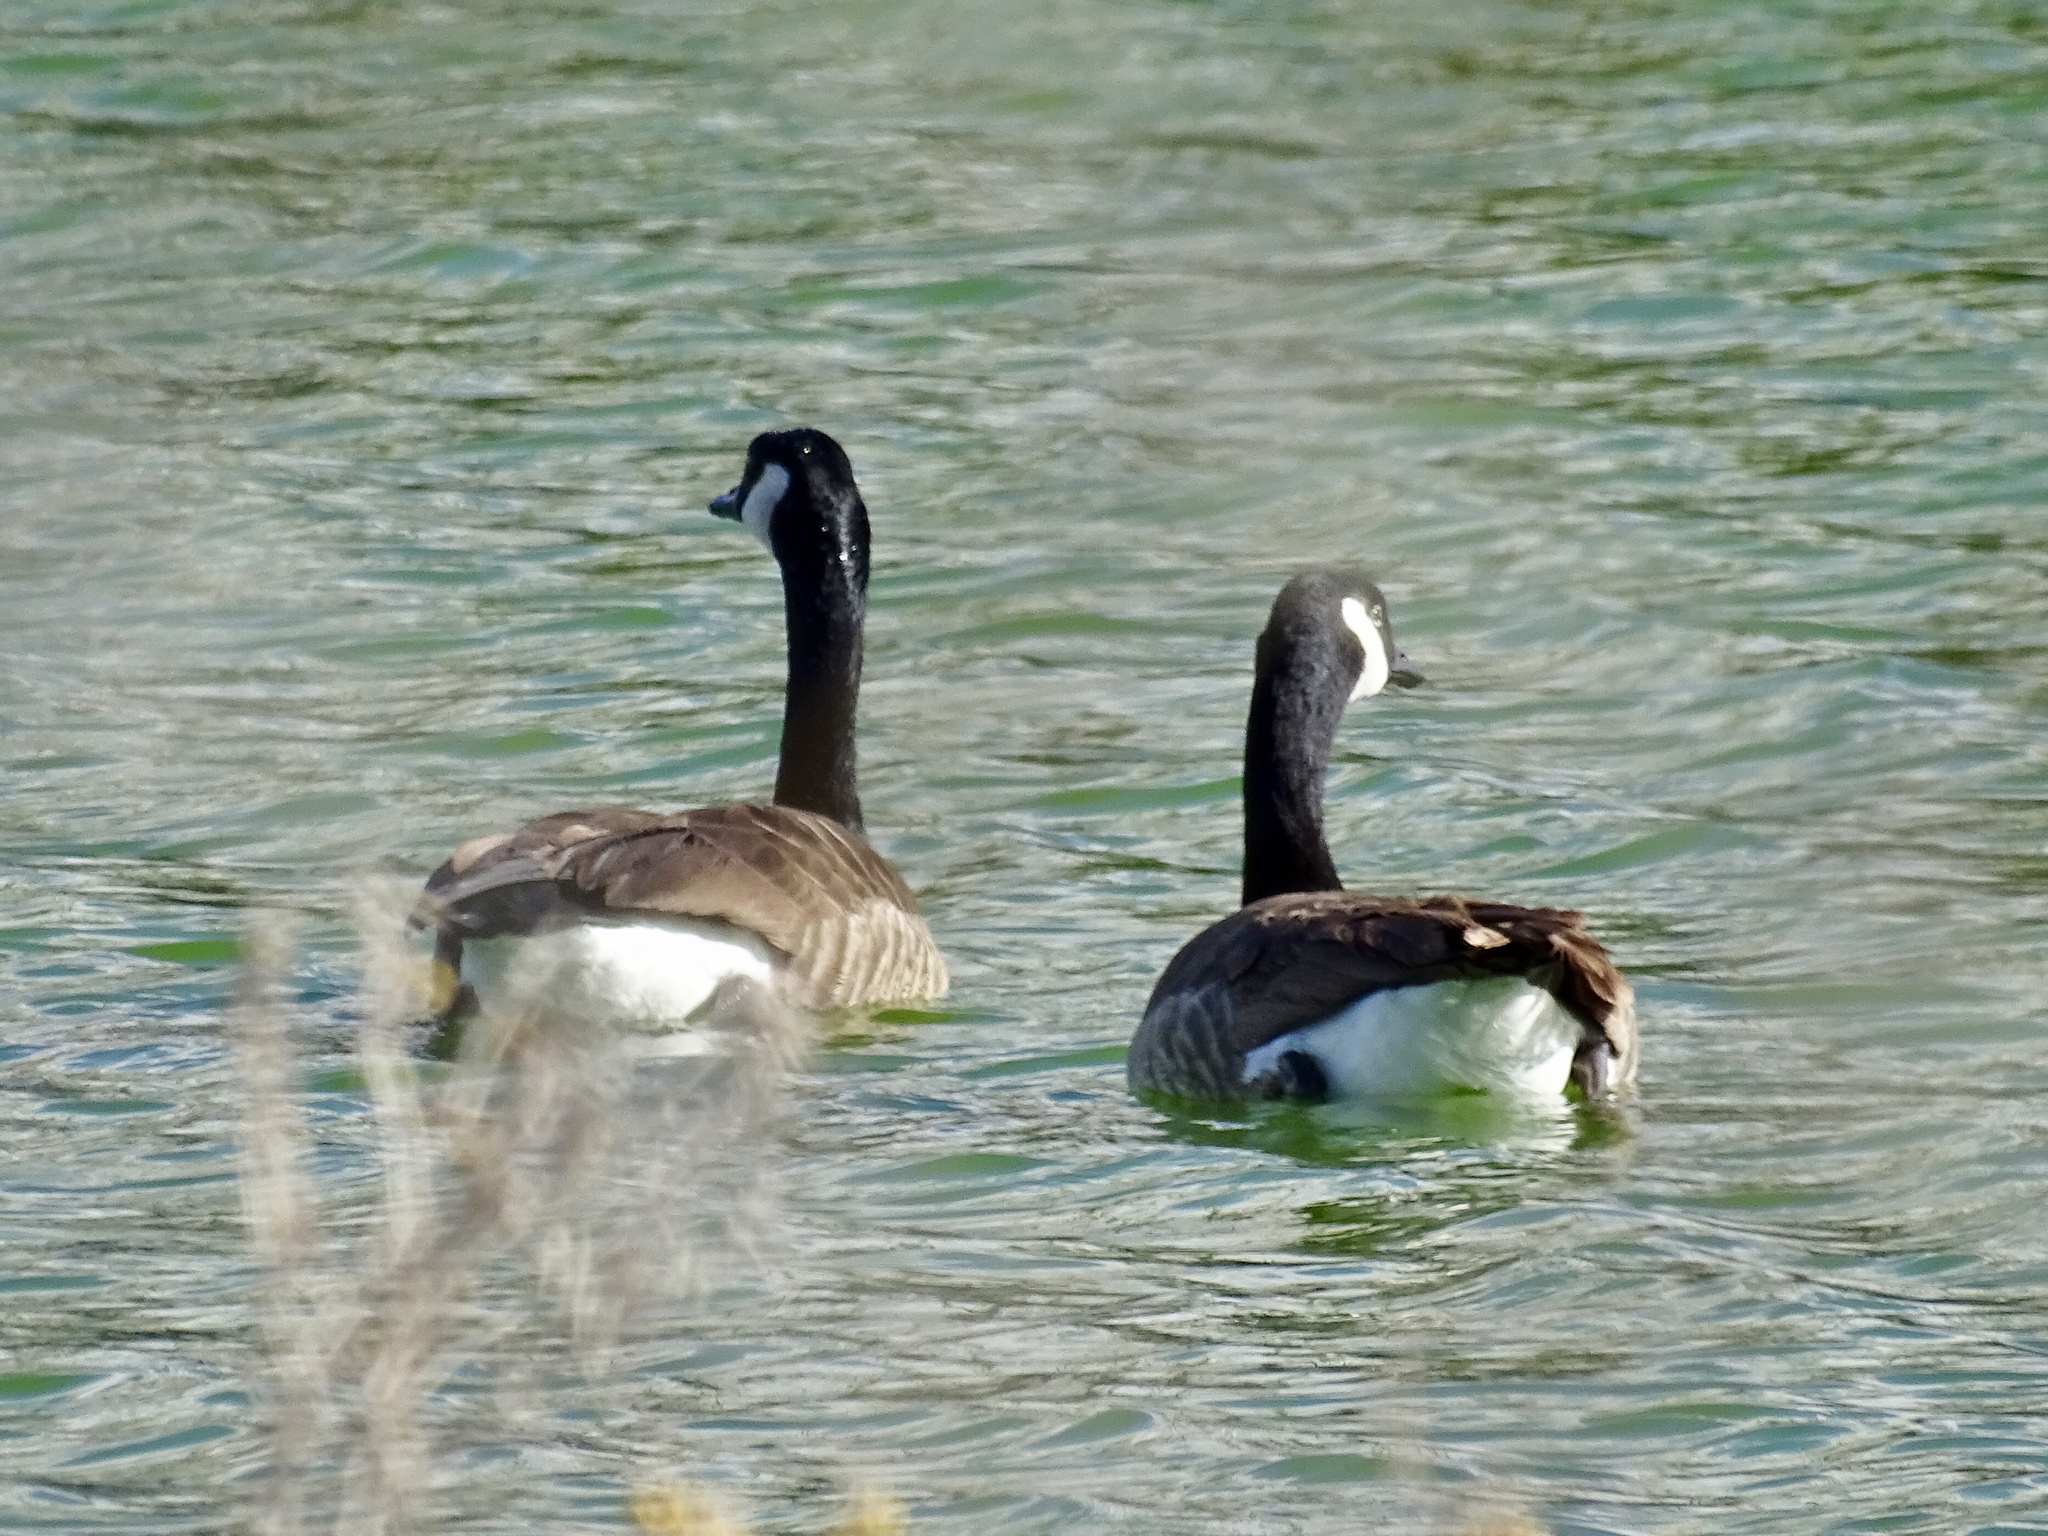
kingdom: Animalia
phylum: Chordata
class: Aves
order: Anseriformes
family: Anatidae
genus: Branta
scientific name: Branta canadensis
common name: Canada goose
